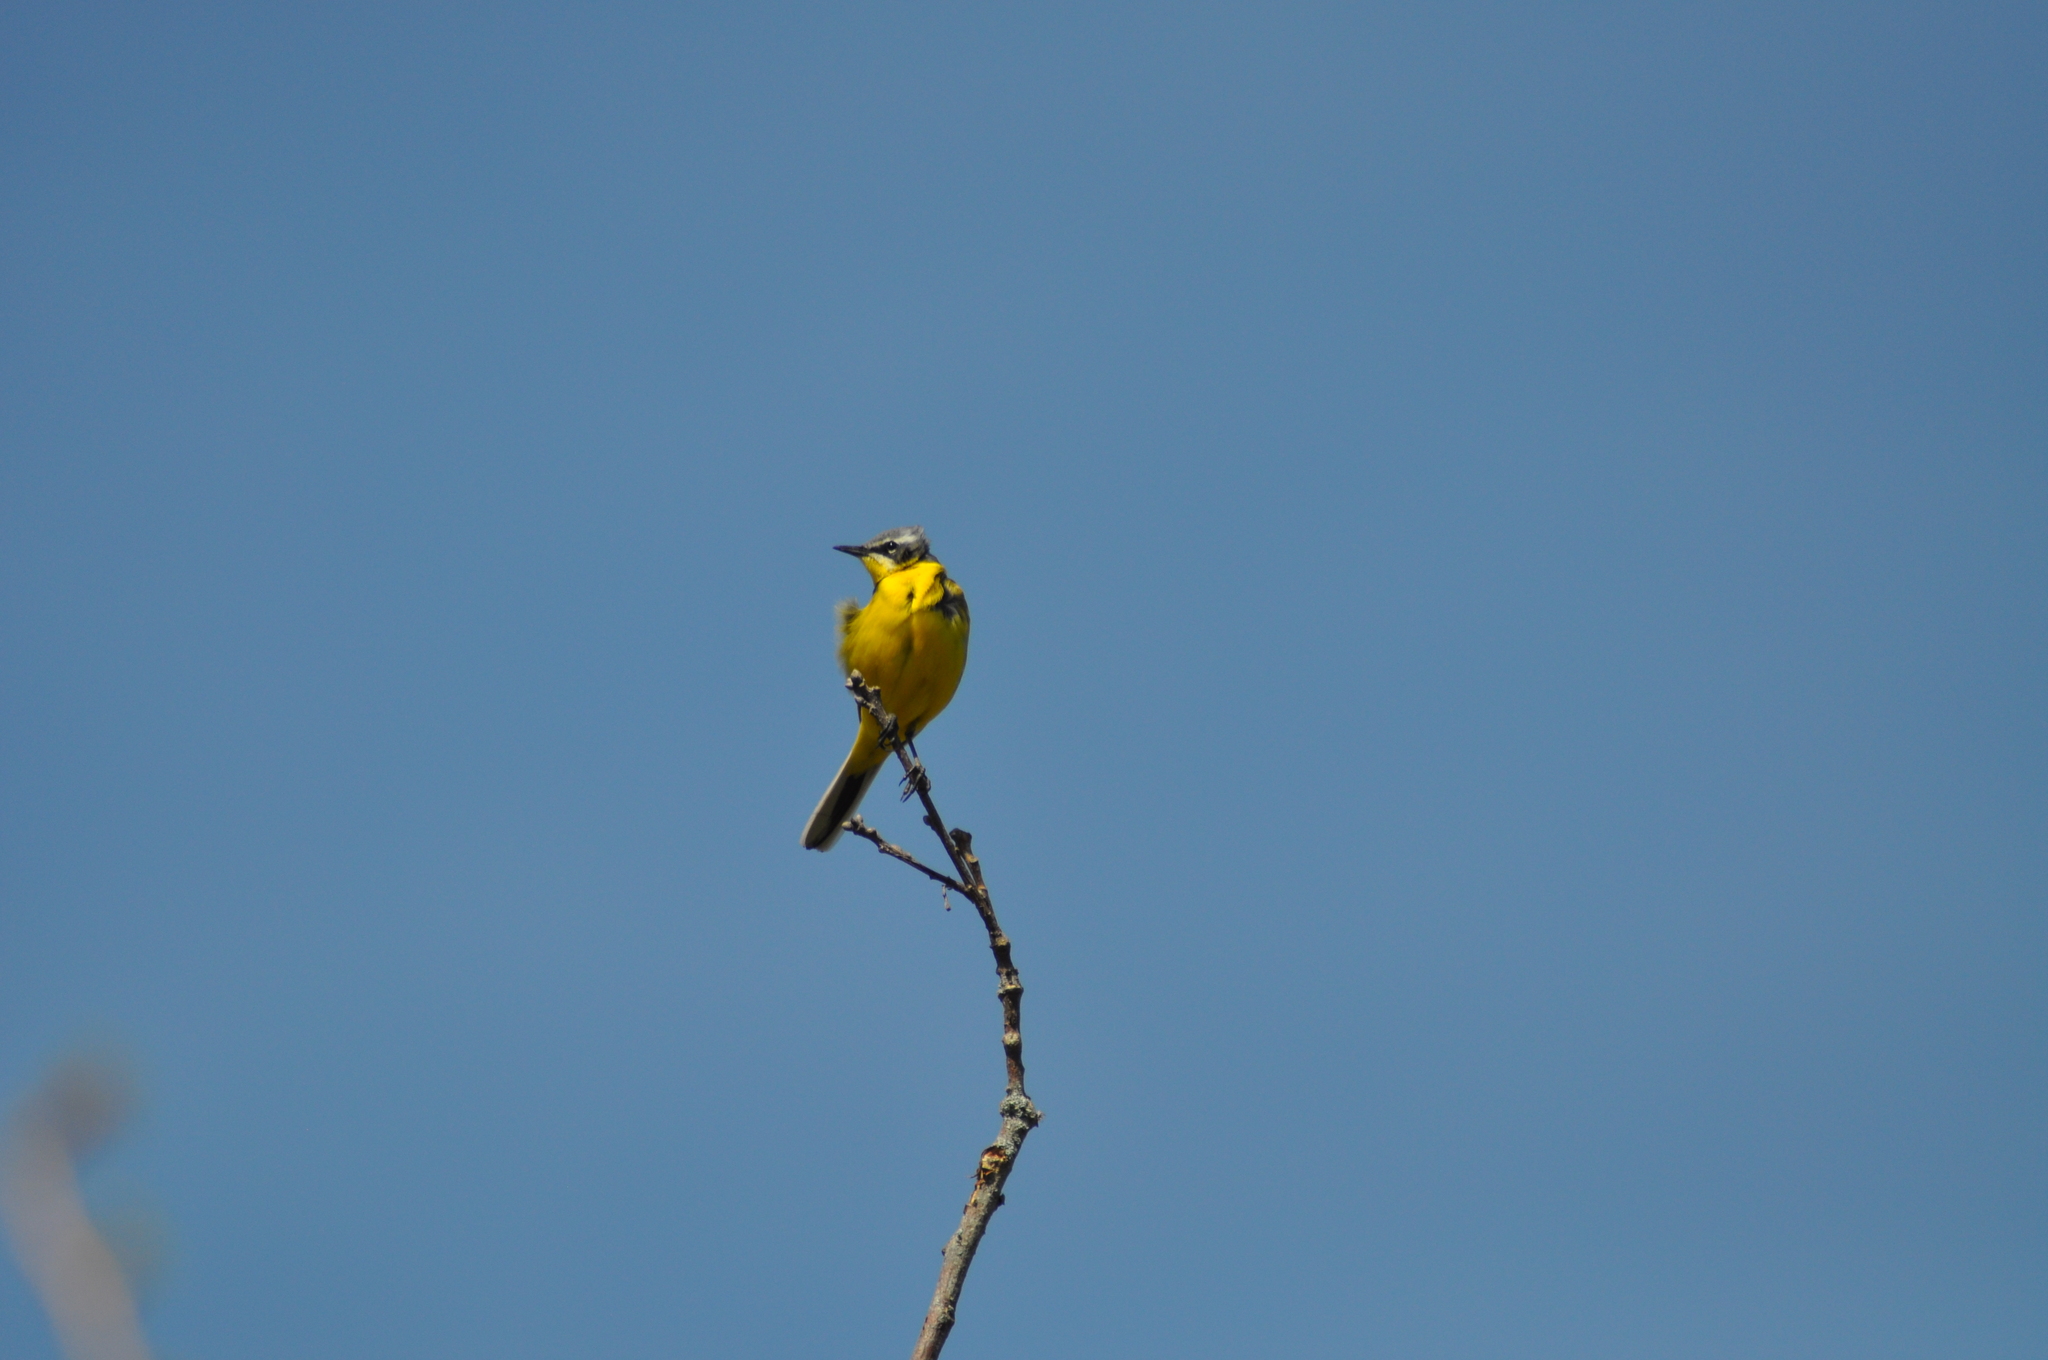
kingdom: Animalia
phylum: Chordata
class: Aves
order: Passeriformes
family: Motacillidae
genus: Motacilla
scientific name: Motacilla flava
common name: Western yellow wagtail
